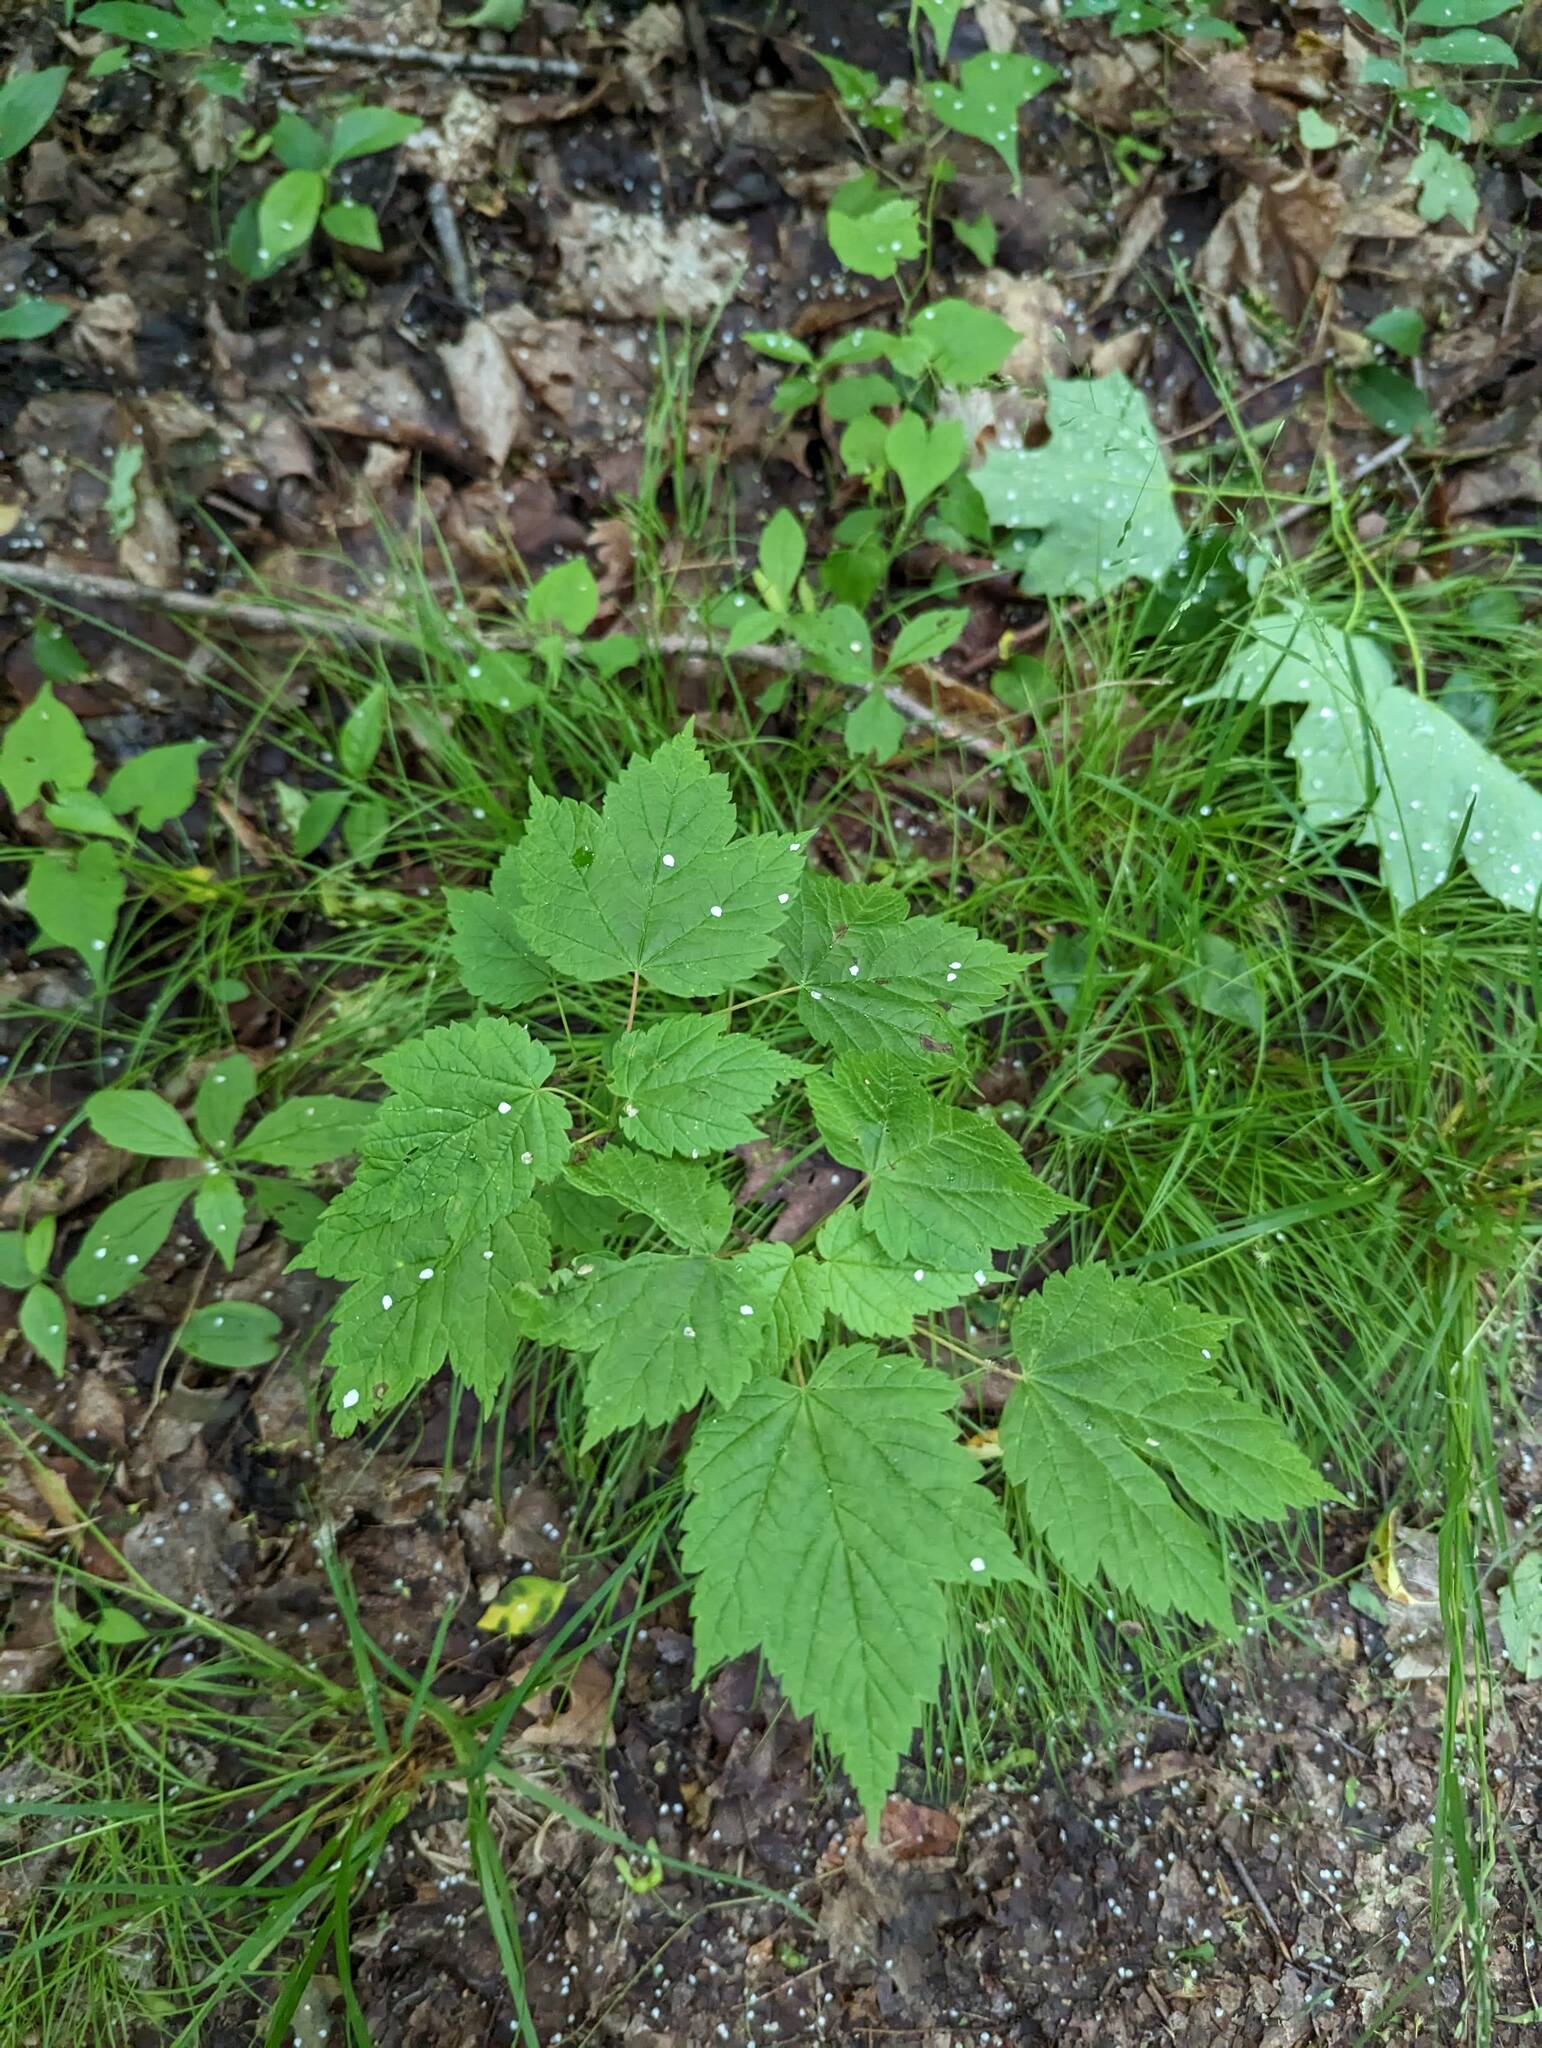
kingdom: Plantae
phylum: Tracheophyta
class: Magnoliopsida
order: Sapindales
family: Sapindaceae
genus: Acer
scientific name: Acer spicatum
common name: Mountain maple
